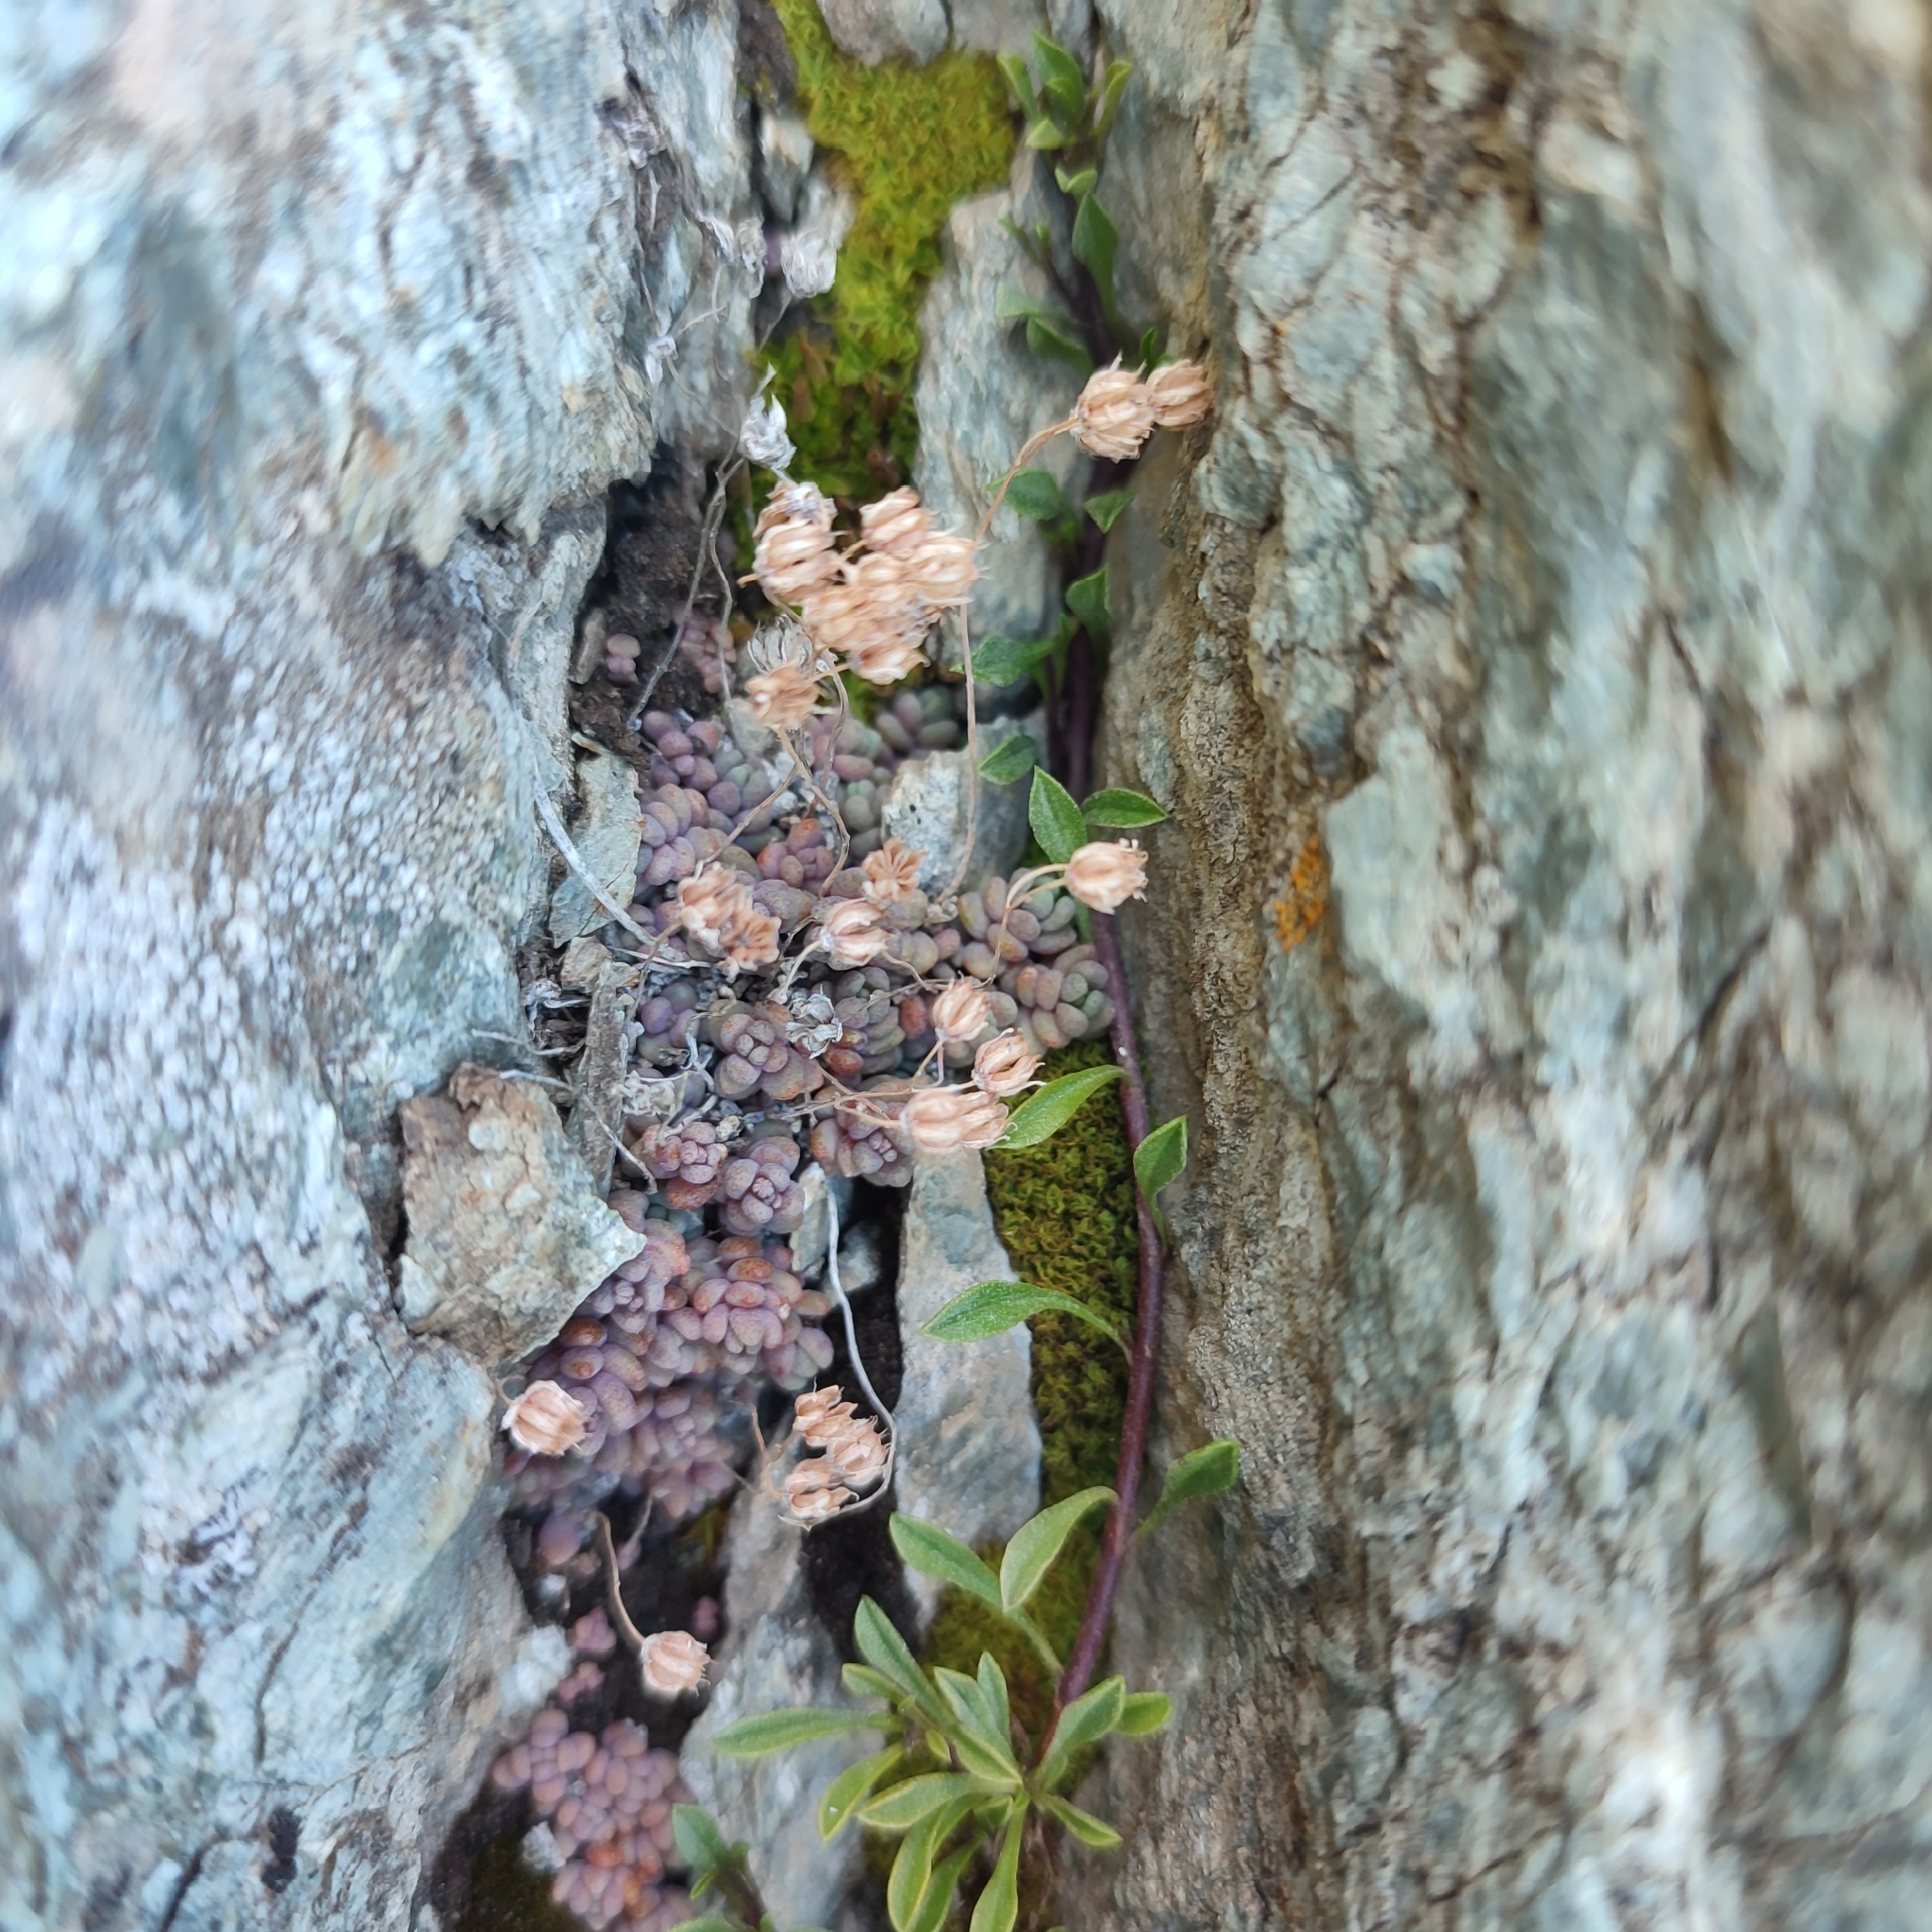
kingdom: Plantae
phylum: Tracheophyta
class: Magnoliopsida
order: Saxifragales
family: Crassulaceae
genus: Sedum
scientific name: Sedum dasyphyllum
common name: Thick-leaf stonecrop
